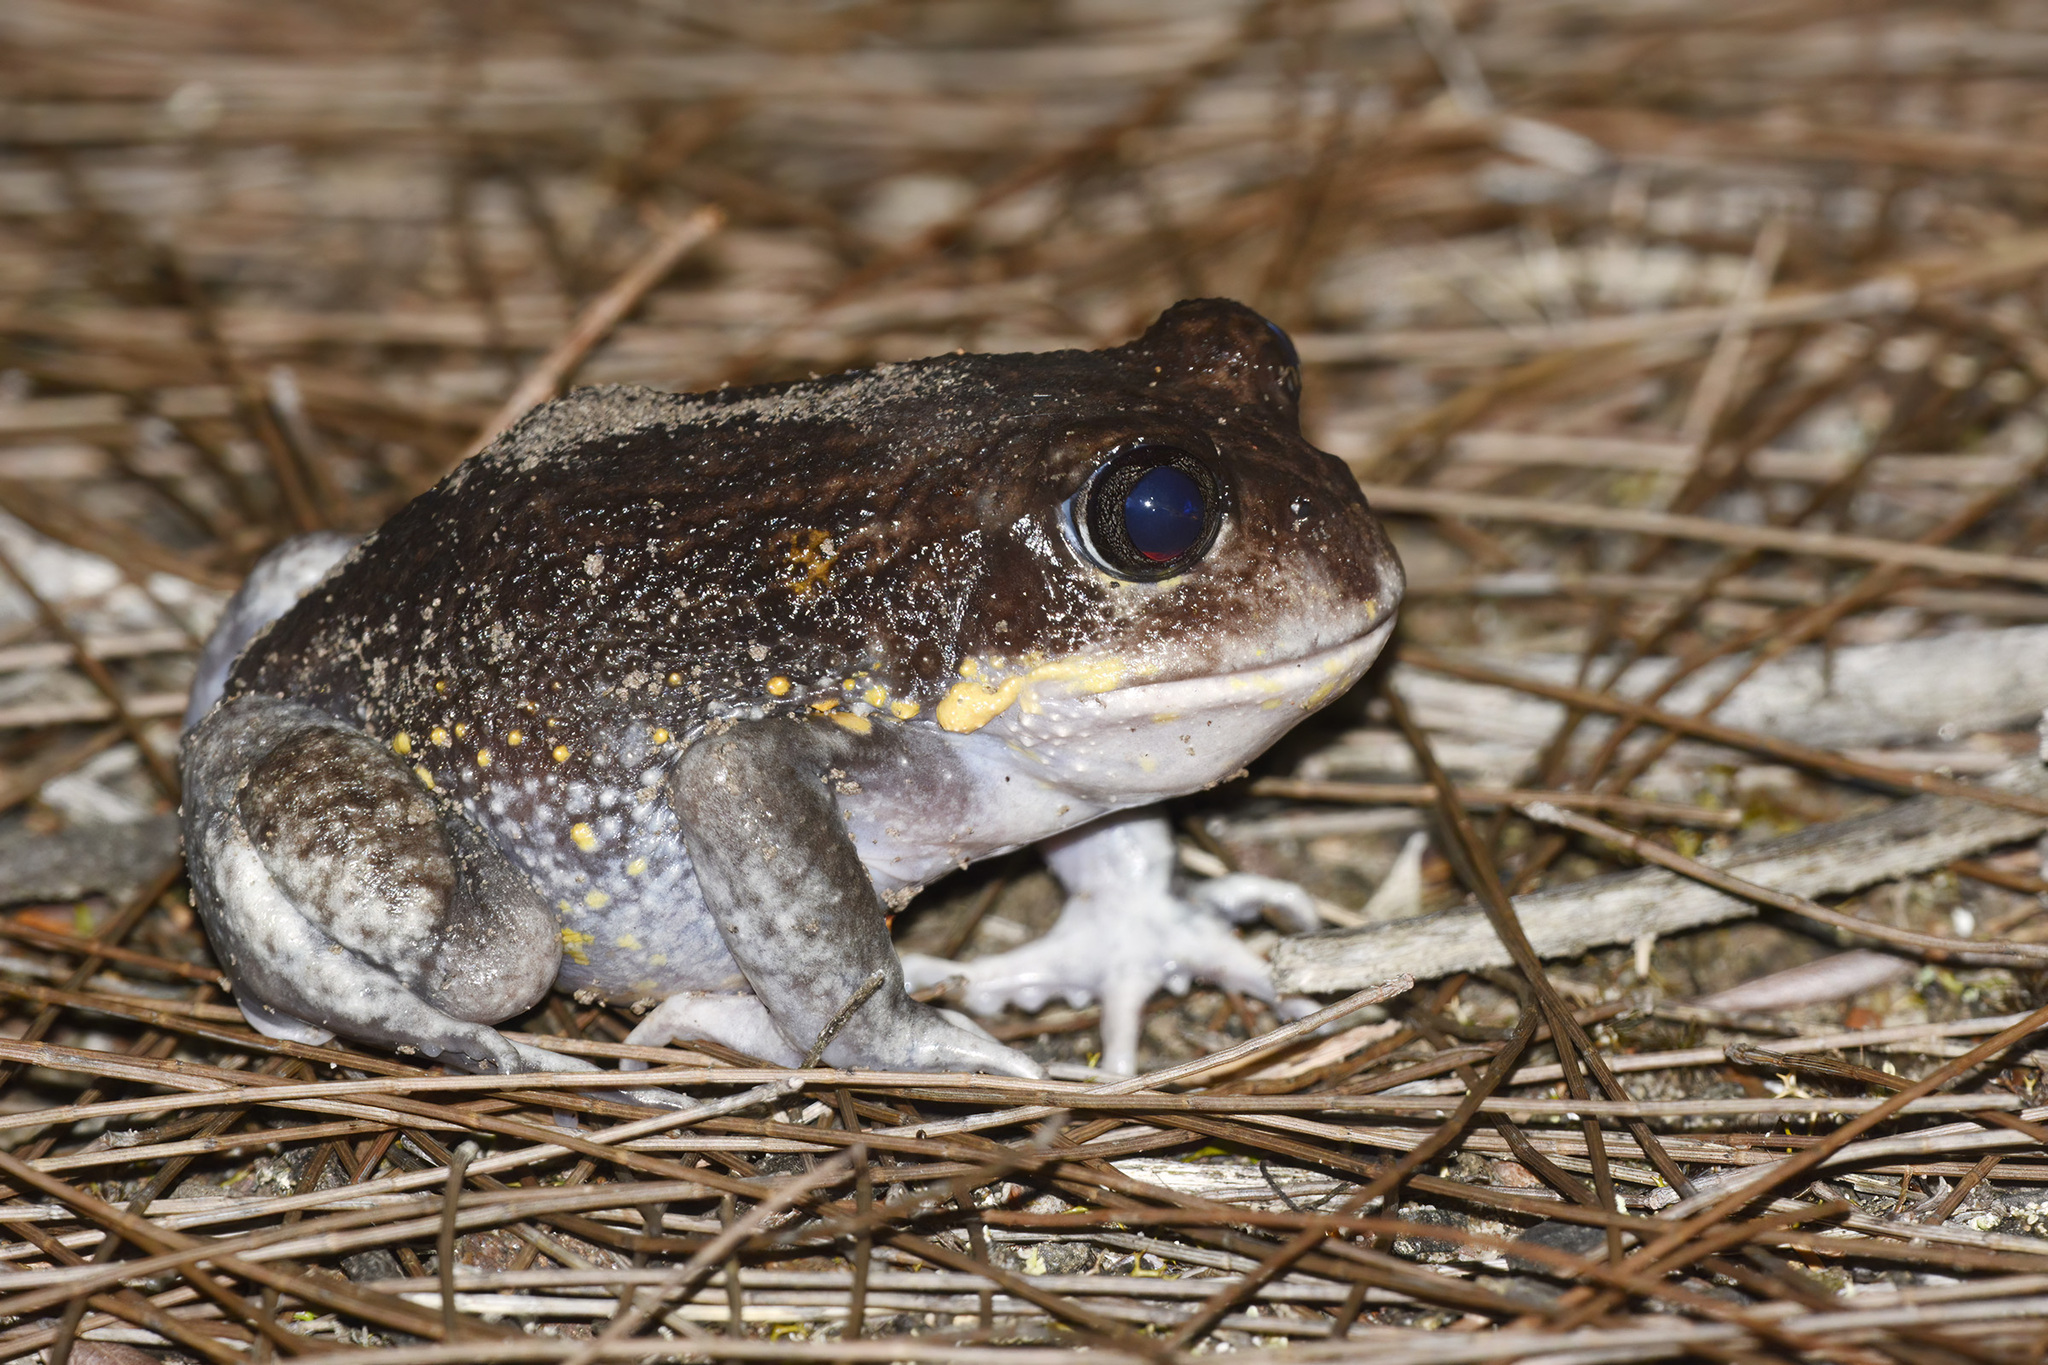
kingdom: Animalia
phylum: Chordata
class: Amphibia
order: Anura
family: Limnodynastidae
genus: Heleioporus
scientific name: Heleioporus australiacus
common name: Eastern owl frog
